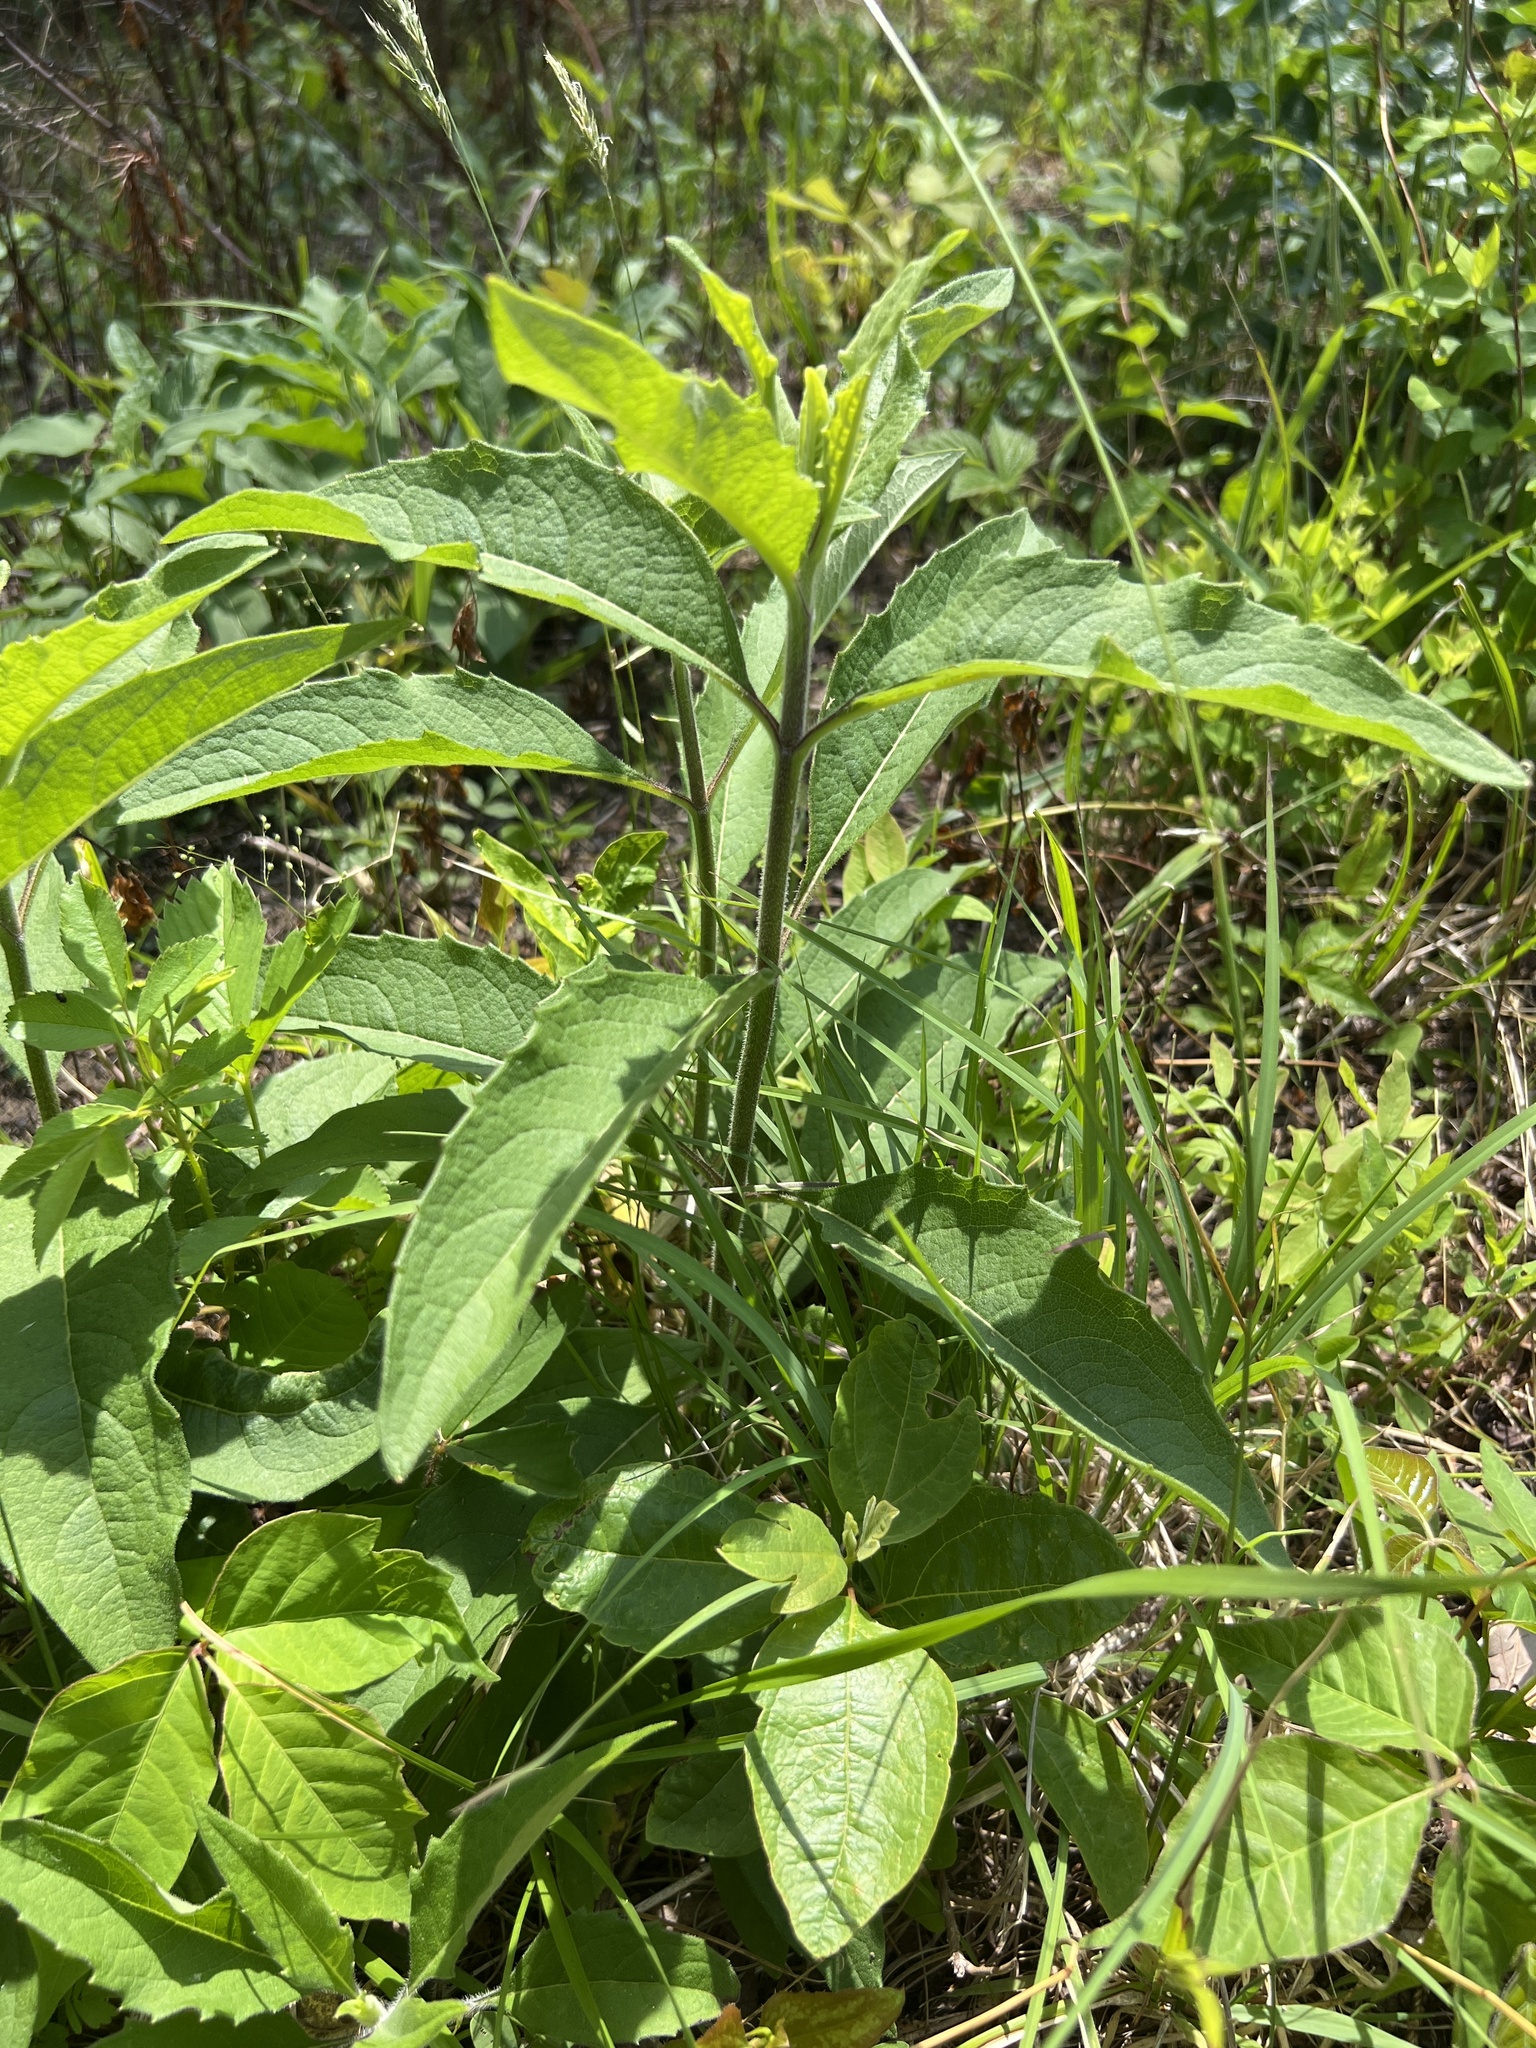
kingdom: Plantae
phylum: Tracheophyta
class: Magnoliopsida
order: Asterales
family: Asteraceae
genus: Silphium
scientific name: Silphium asteriscus
